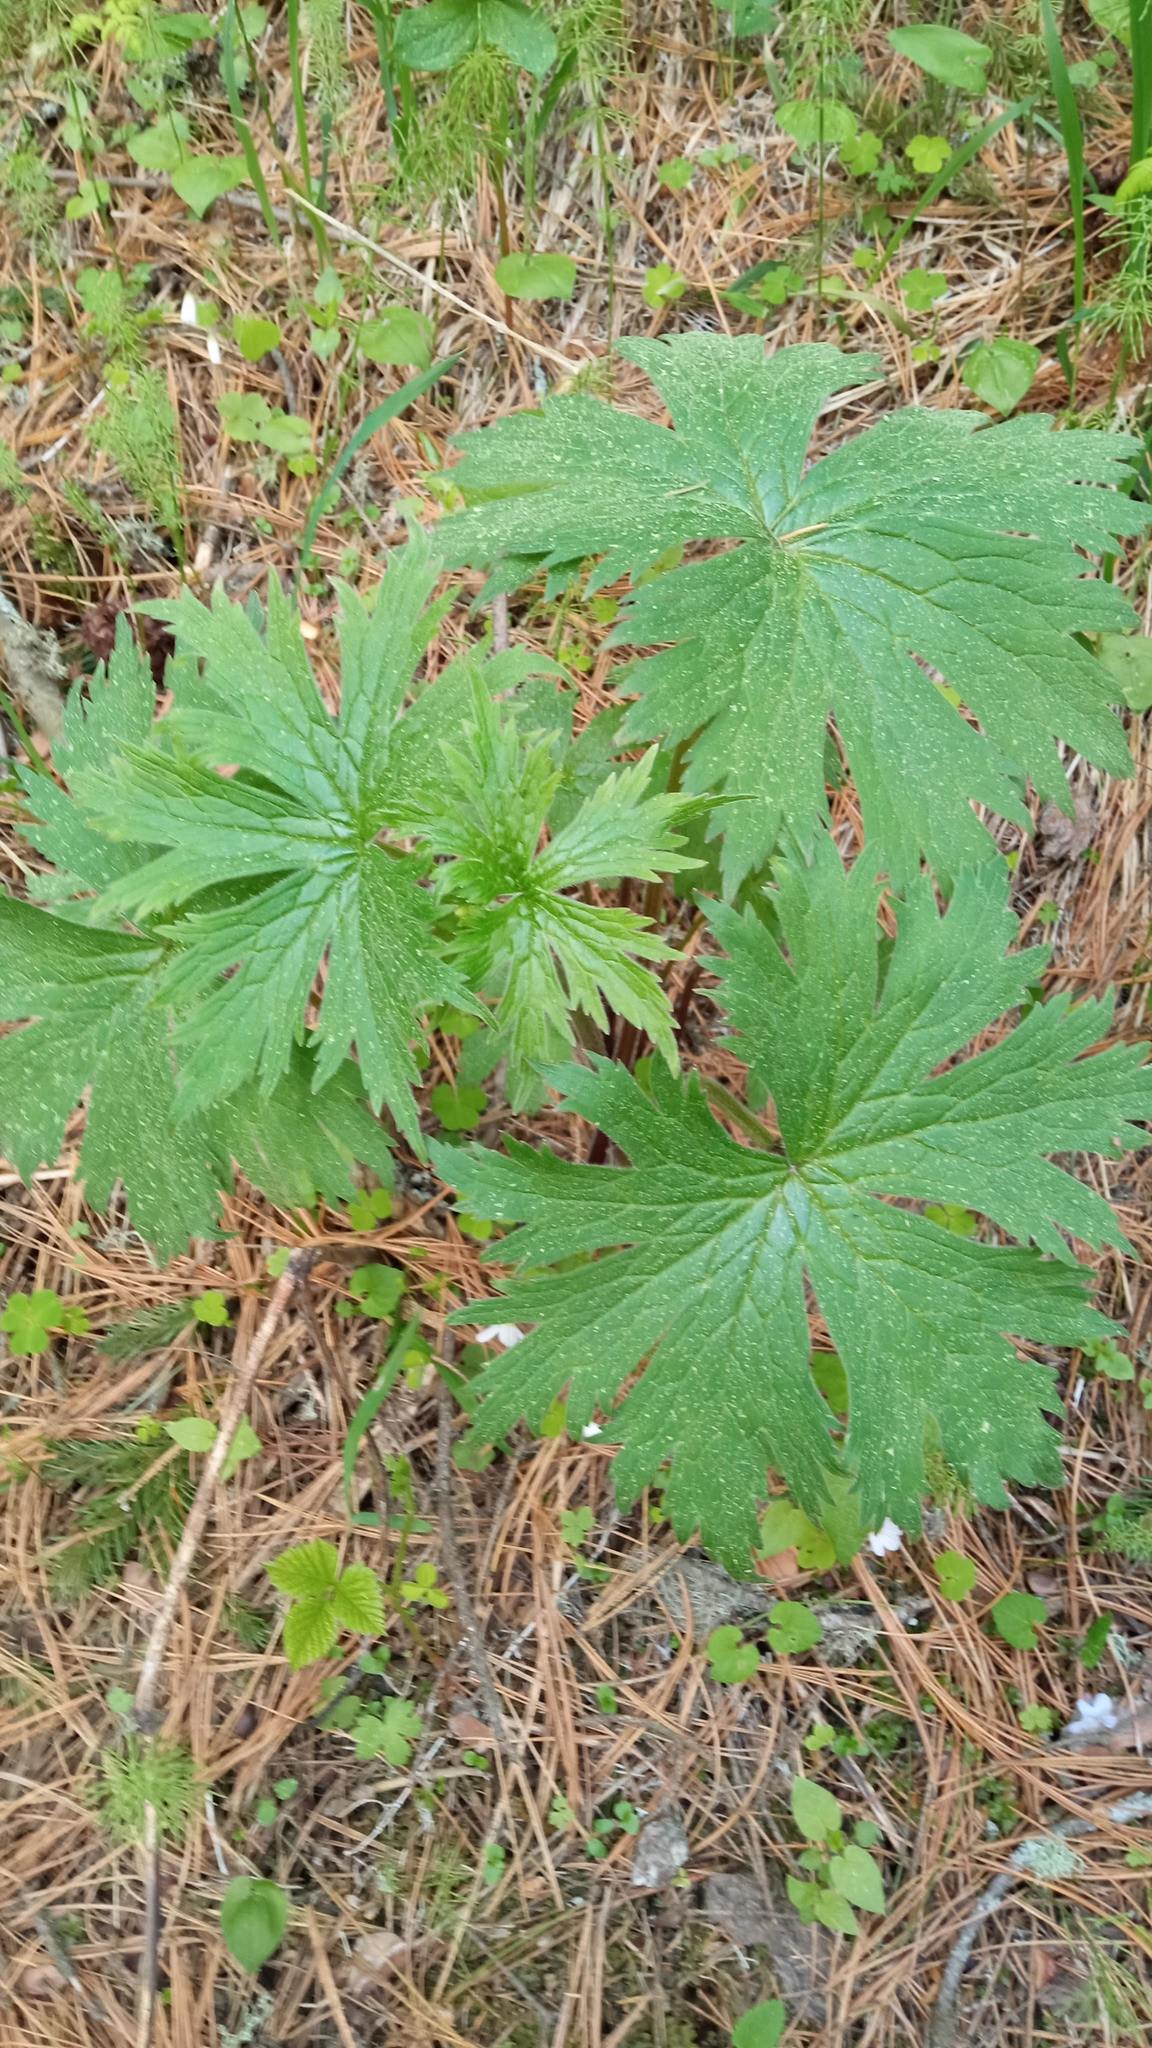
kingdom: Plantae
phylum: Tracheophyta
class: Magnoliopsida
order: Ranunculales
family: Ranunculaceae
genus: Aconitum
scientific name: Aconitum septentrionale
